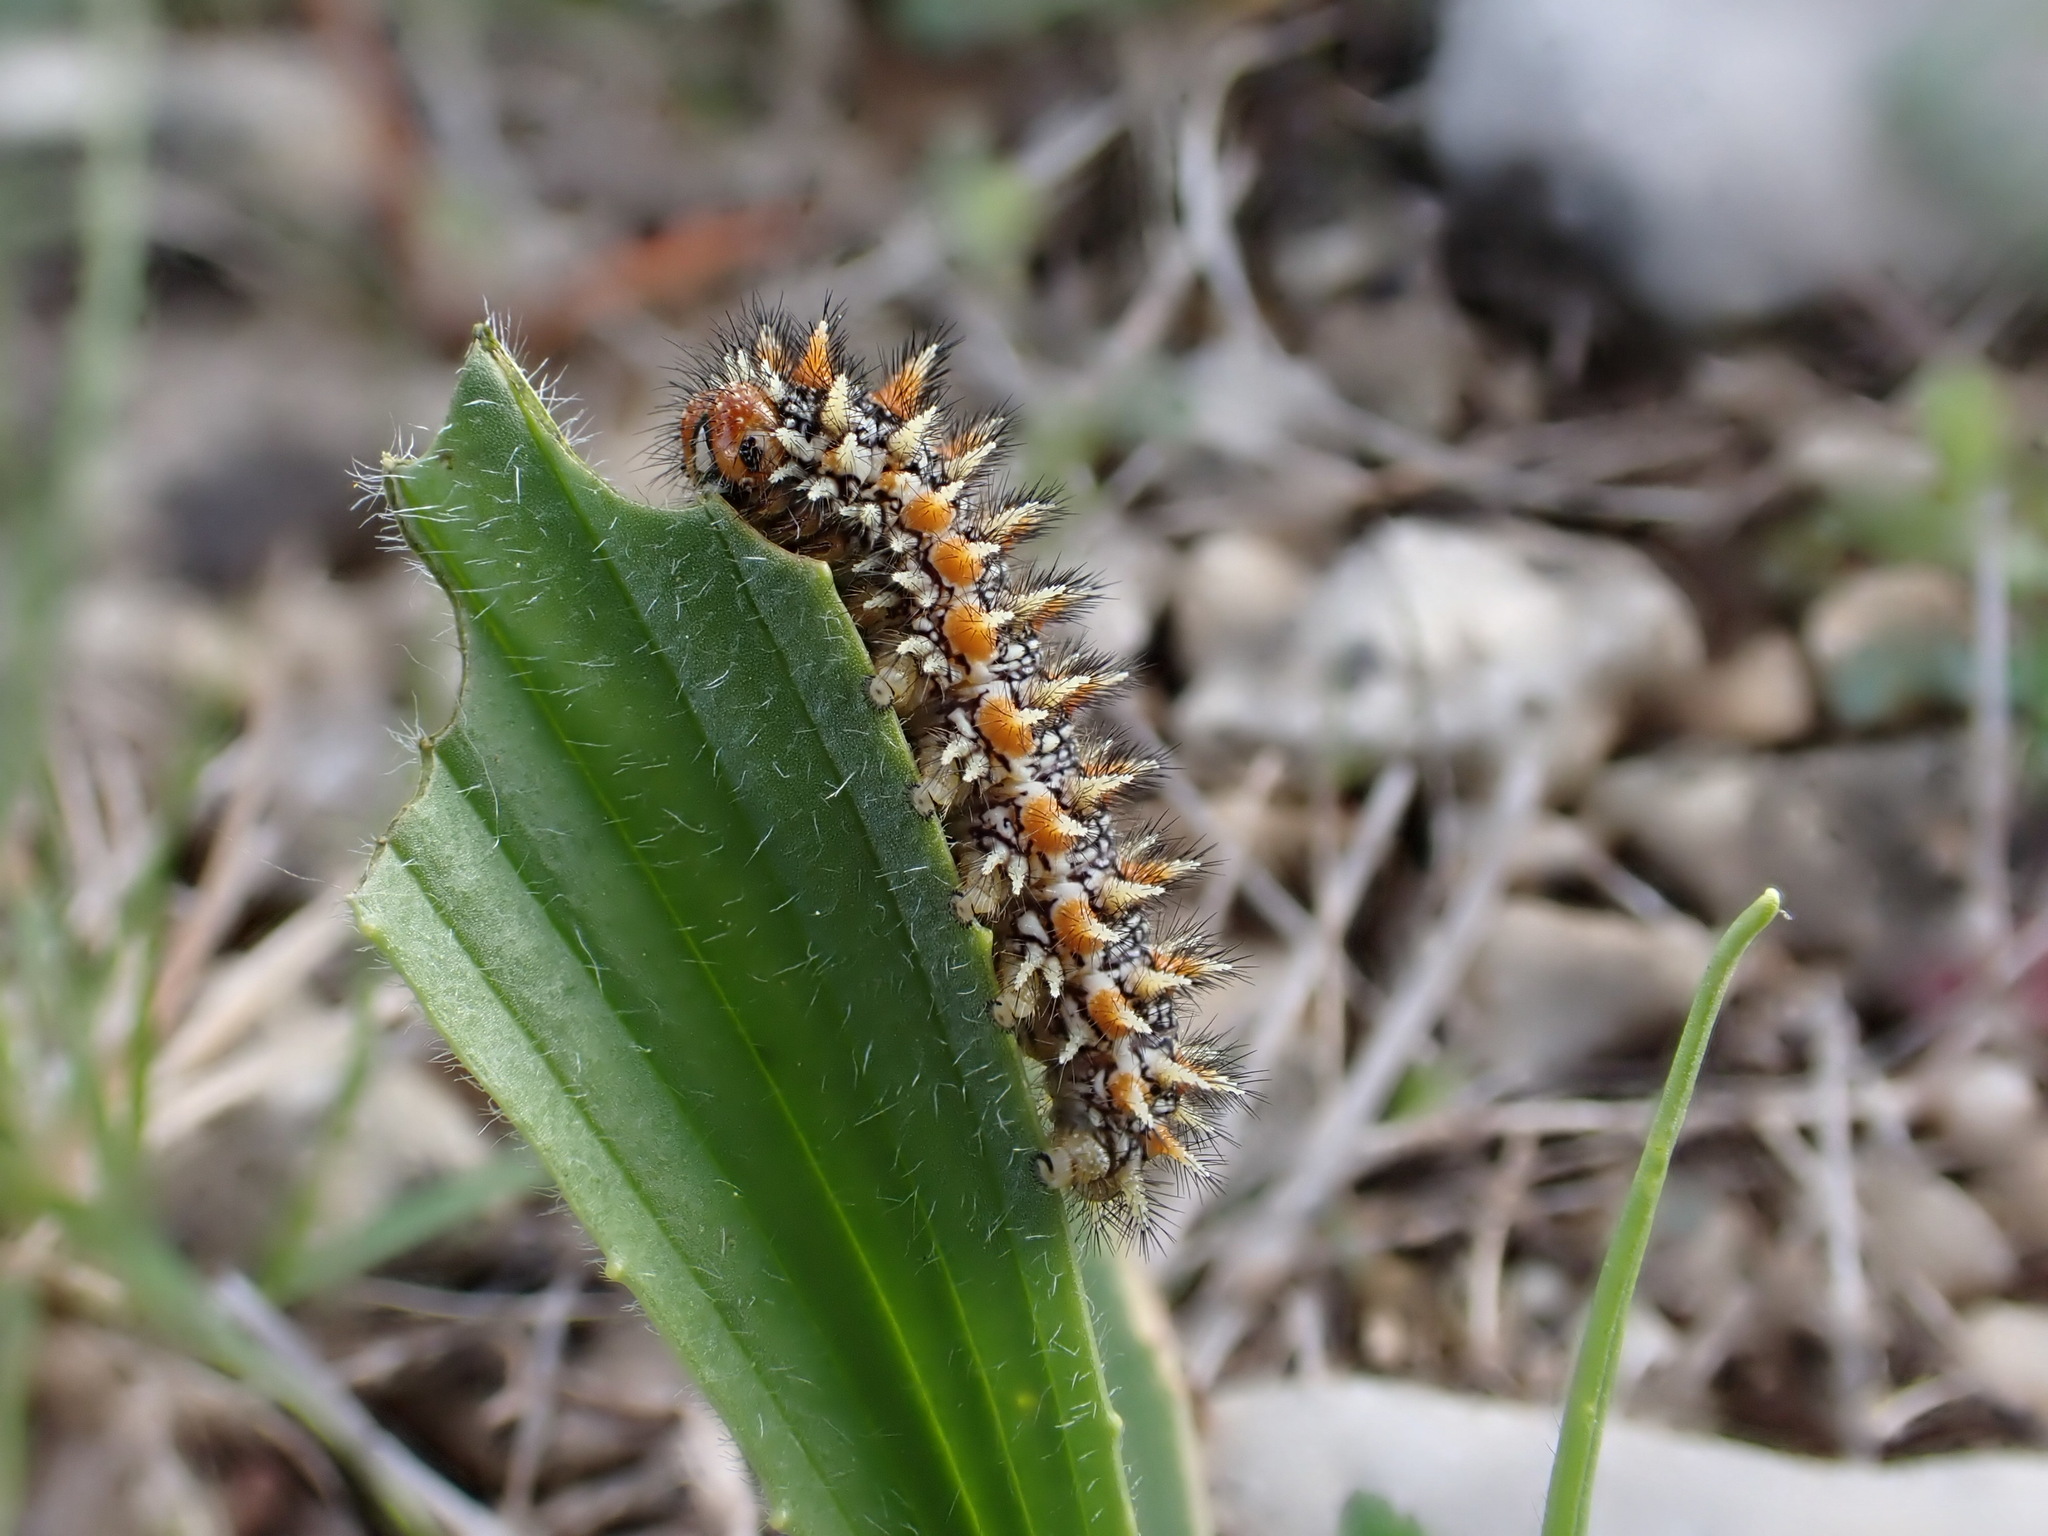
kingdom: Animalia
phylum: Arthropoda
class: Insecta
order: Lepidoptera
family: Nymphalidae
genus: Melitaea
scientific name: Melitaea didyma
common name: Spotted fritillary
